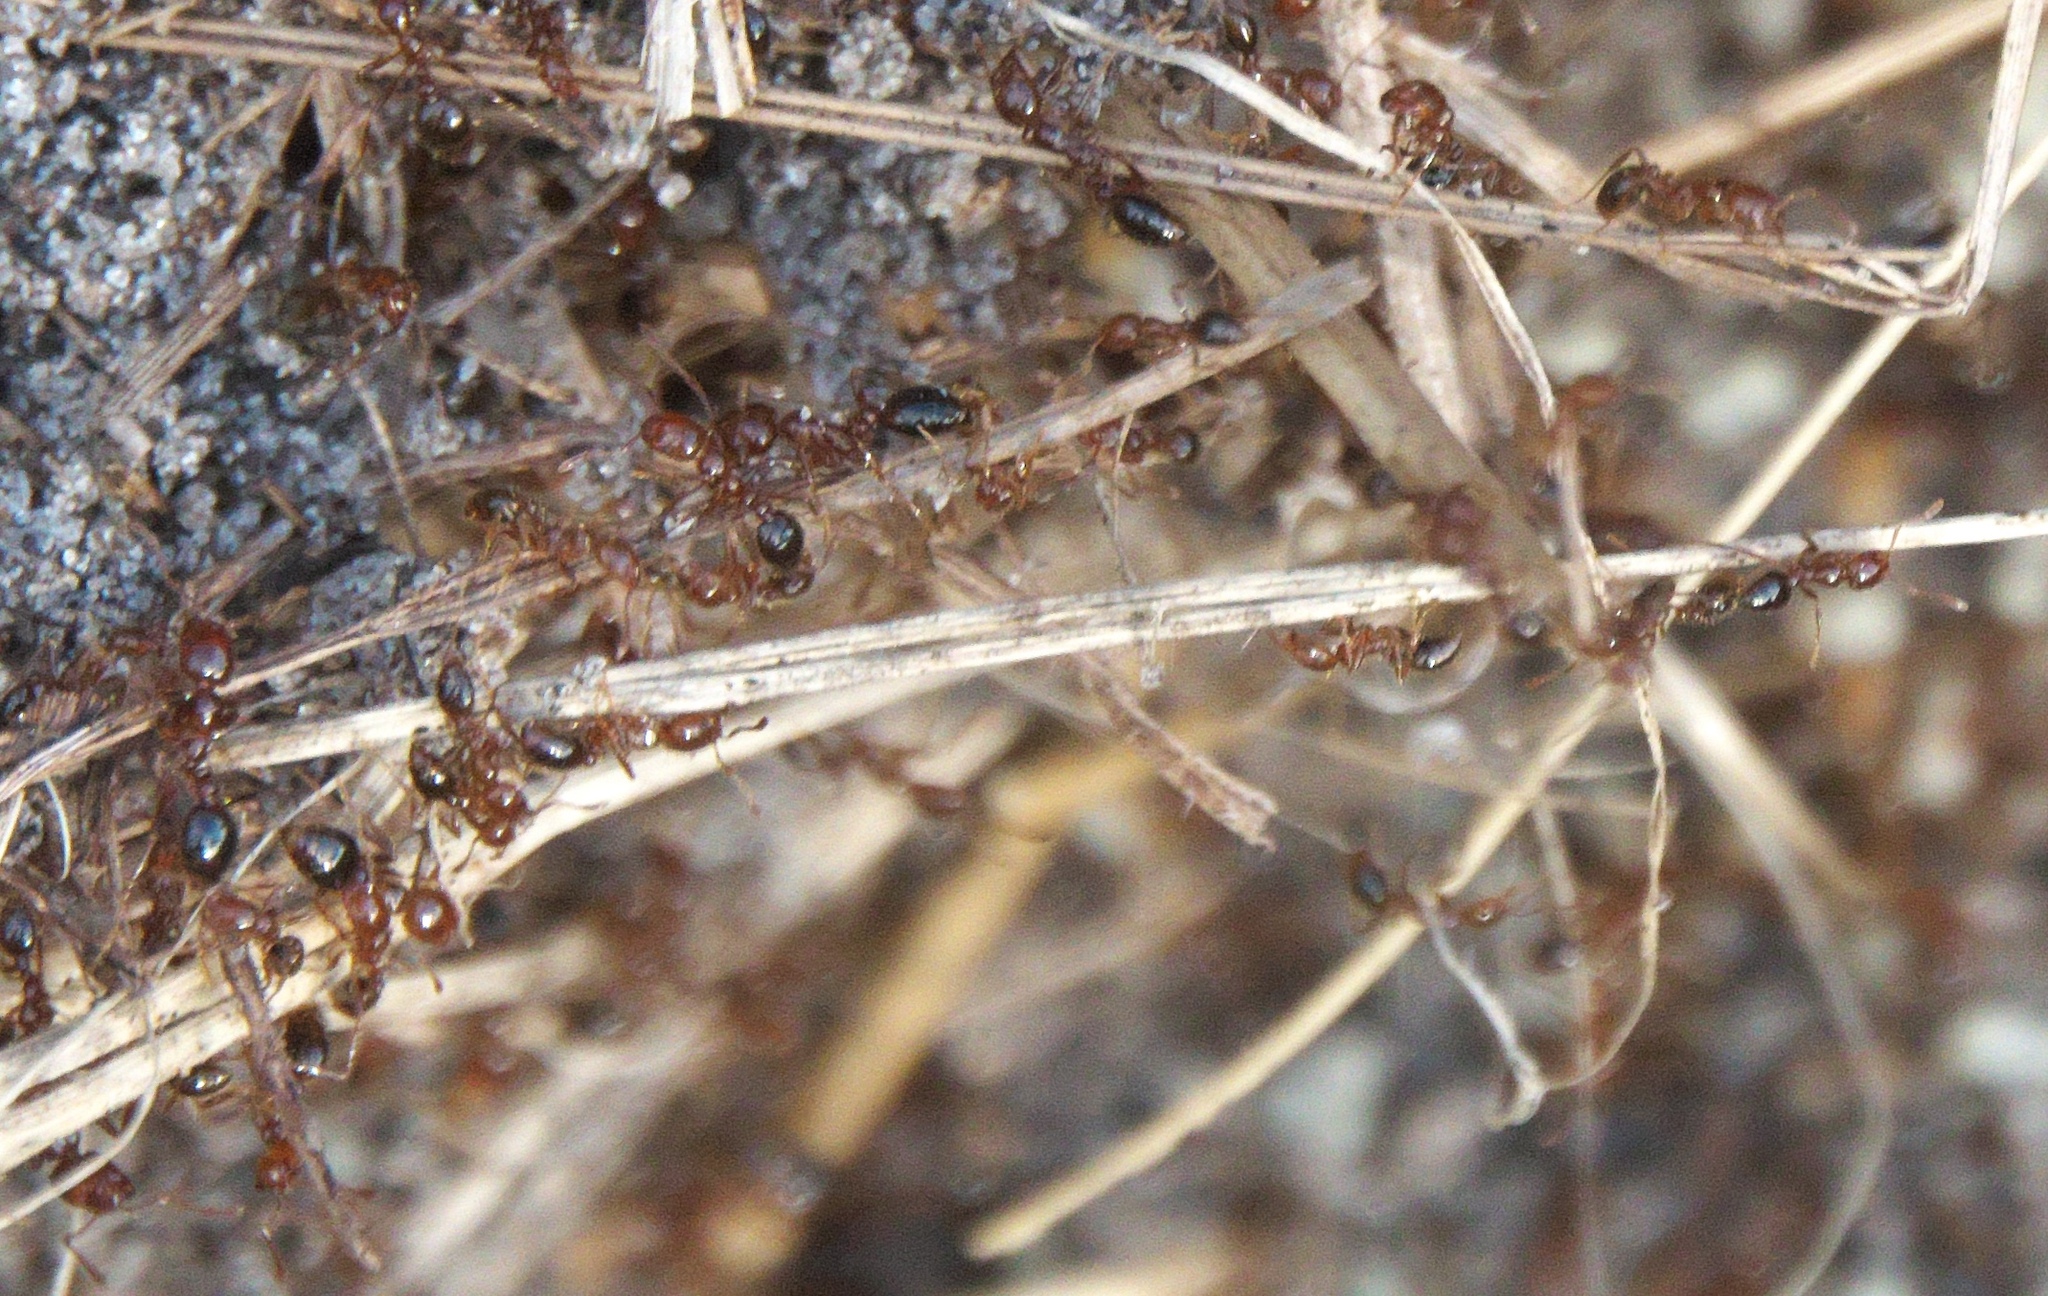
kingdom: Animalia
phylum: Arthropoda
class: Insecta
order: Hymenoptera
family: Formicidae
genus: Solenopsis
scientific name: Solenopsis invicta
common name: Red imported fire ant
